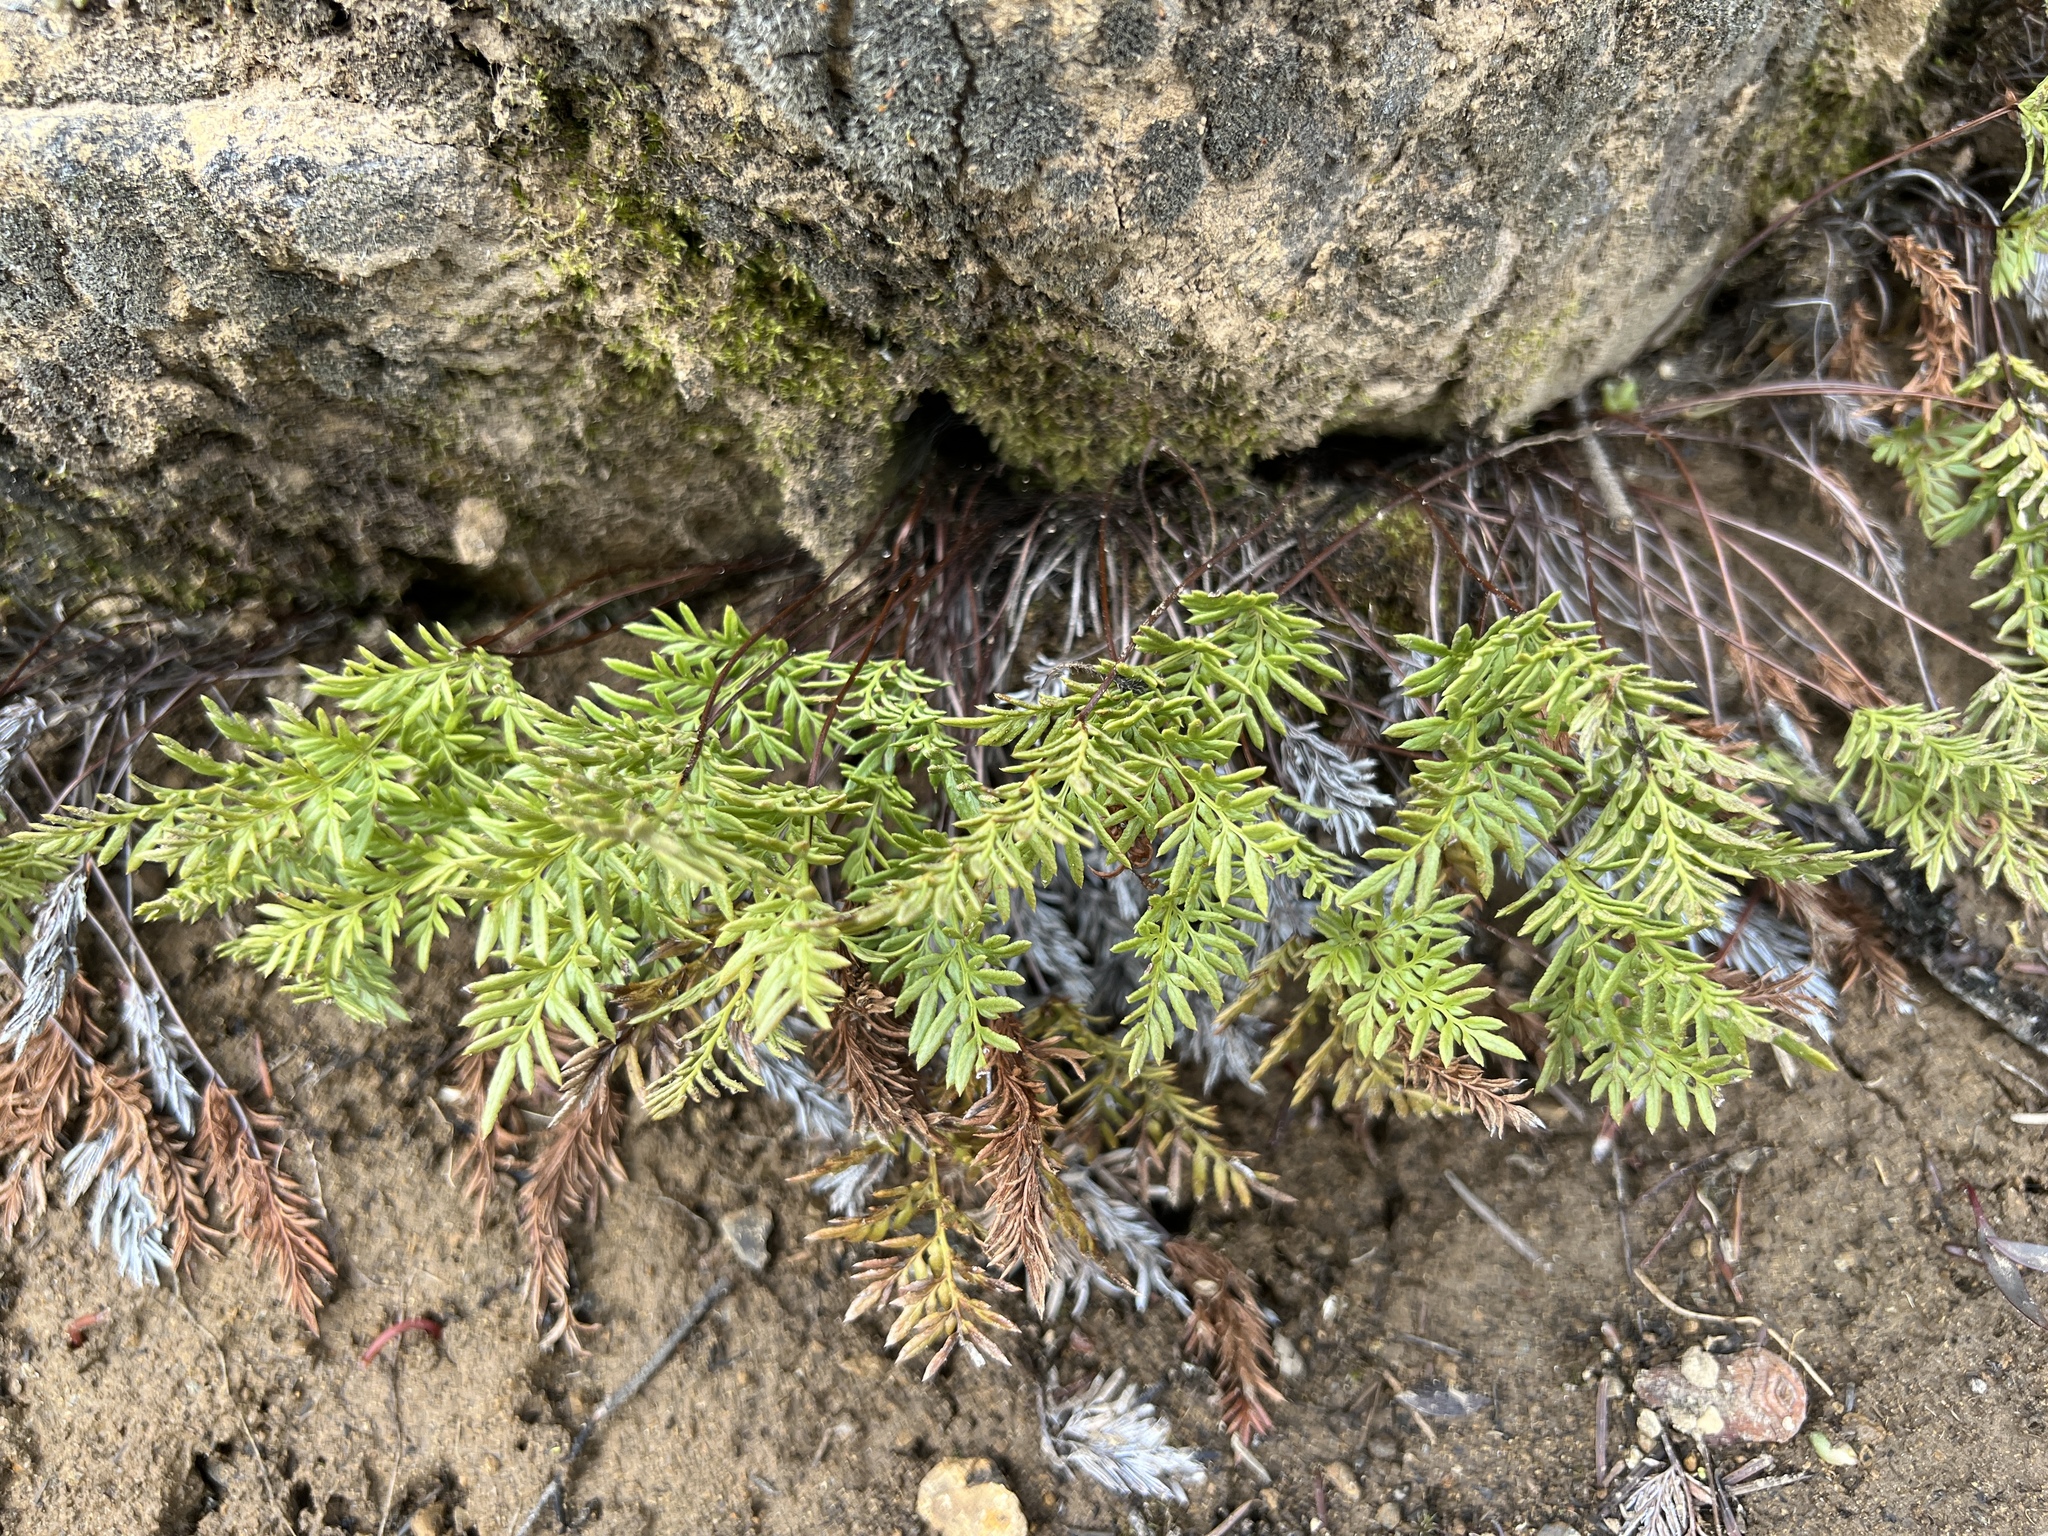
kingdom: Plantae
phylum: Tracheophyta
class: Polypodiopsida
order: Polypodiales
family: Pteridaceae
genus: Aspidotis
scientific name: Aspidotis densa
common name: Indian's dream
